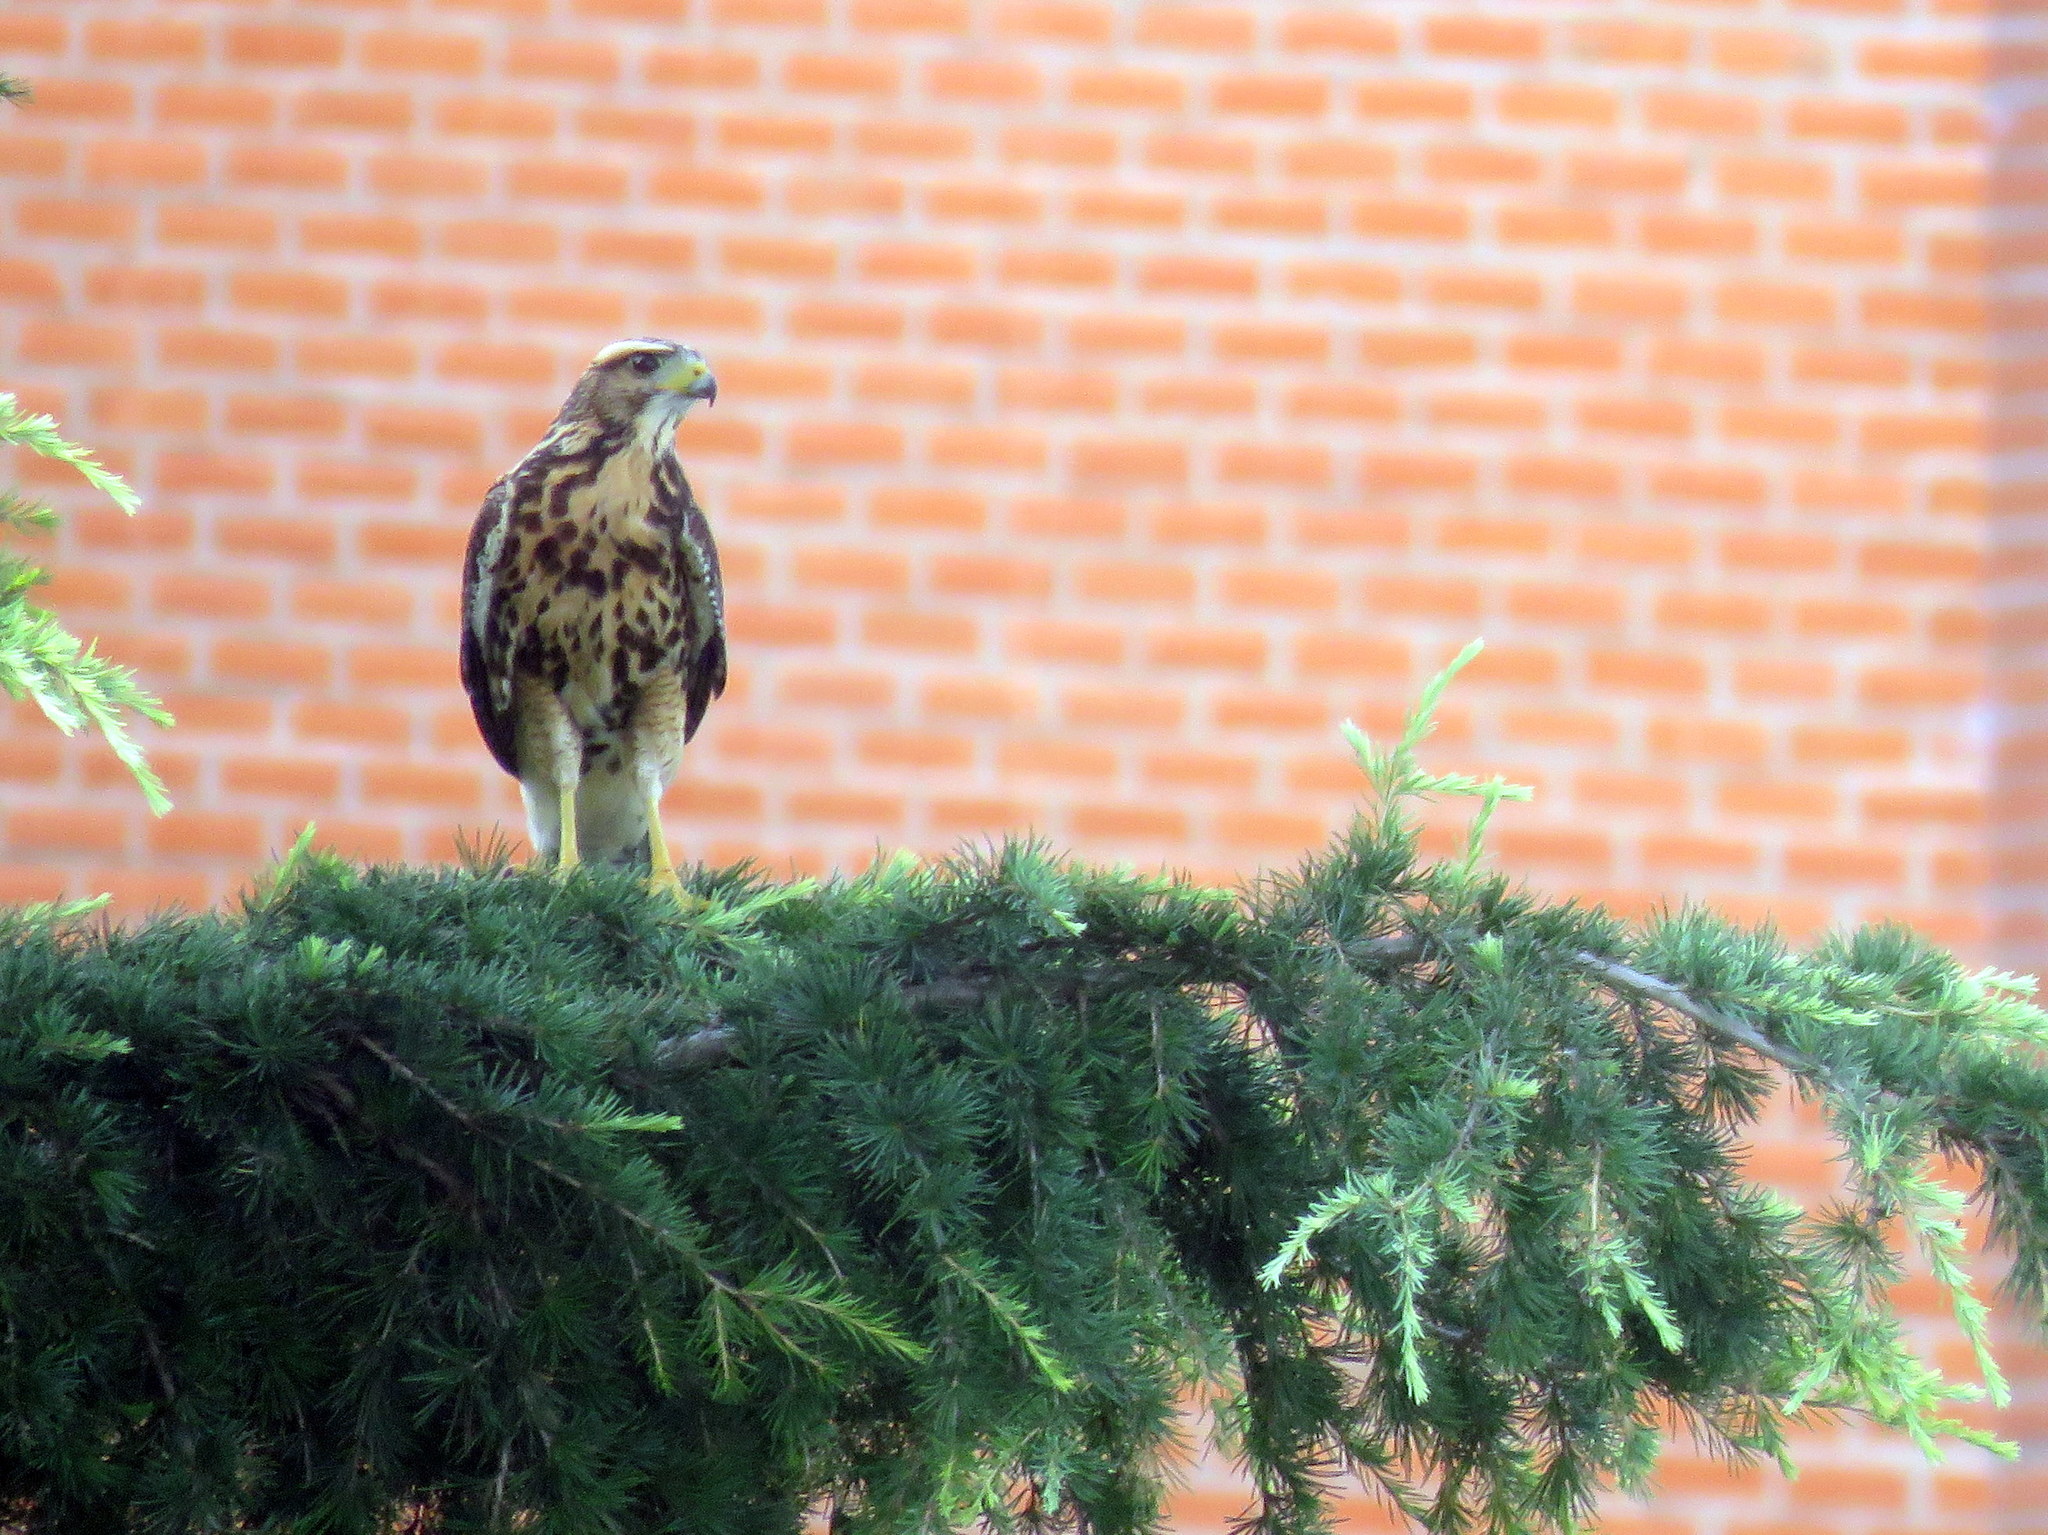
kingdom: Animalia
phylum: Chordata
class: Aves
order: Accipitriformes
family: Accipitridae
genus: Parabuteo
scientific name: Parabuteo unicinctus
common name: Harris's hawk
